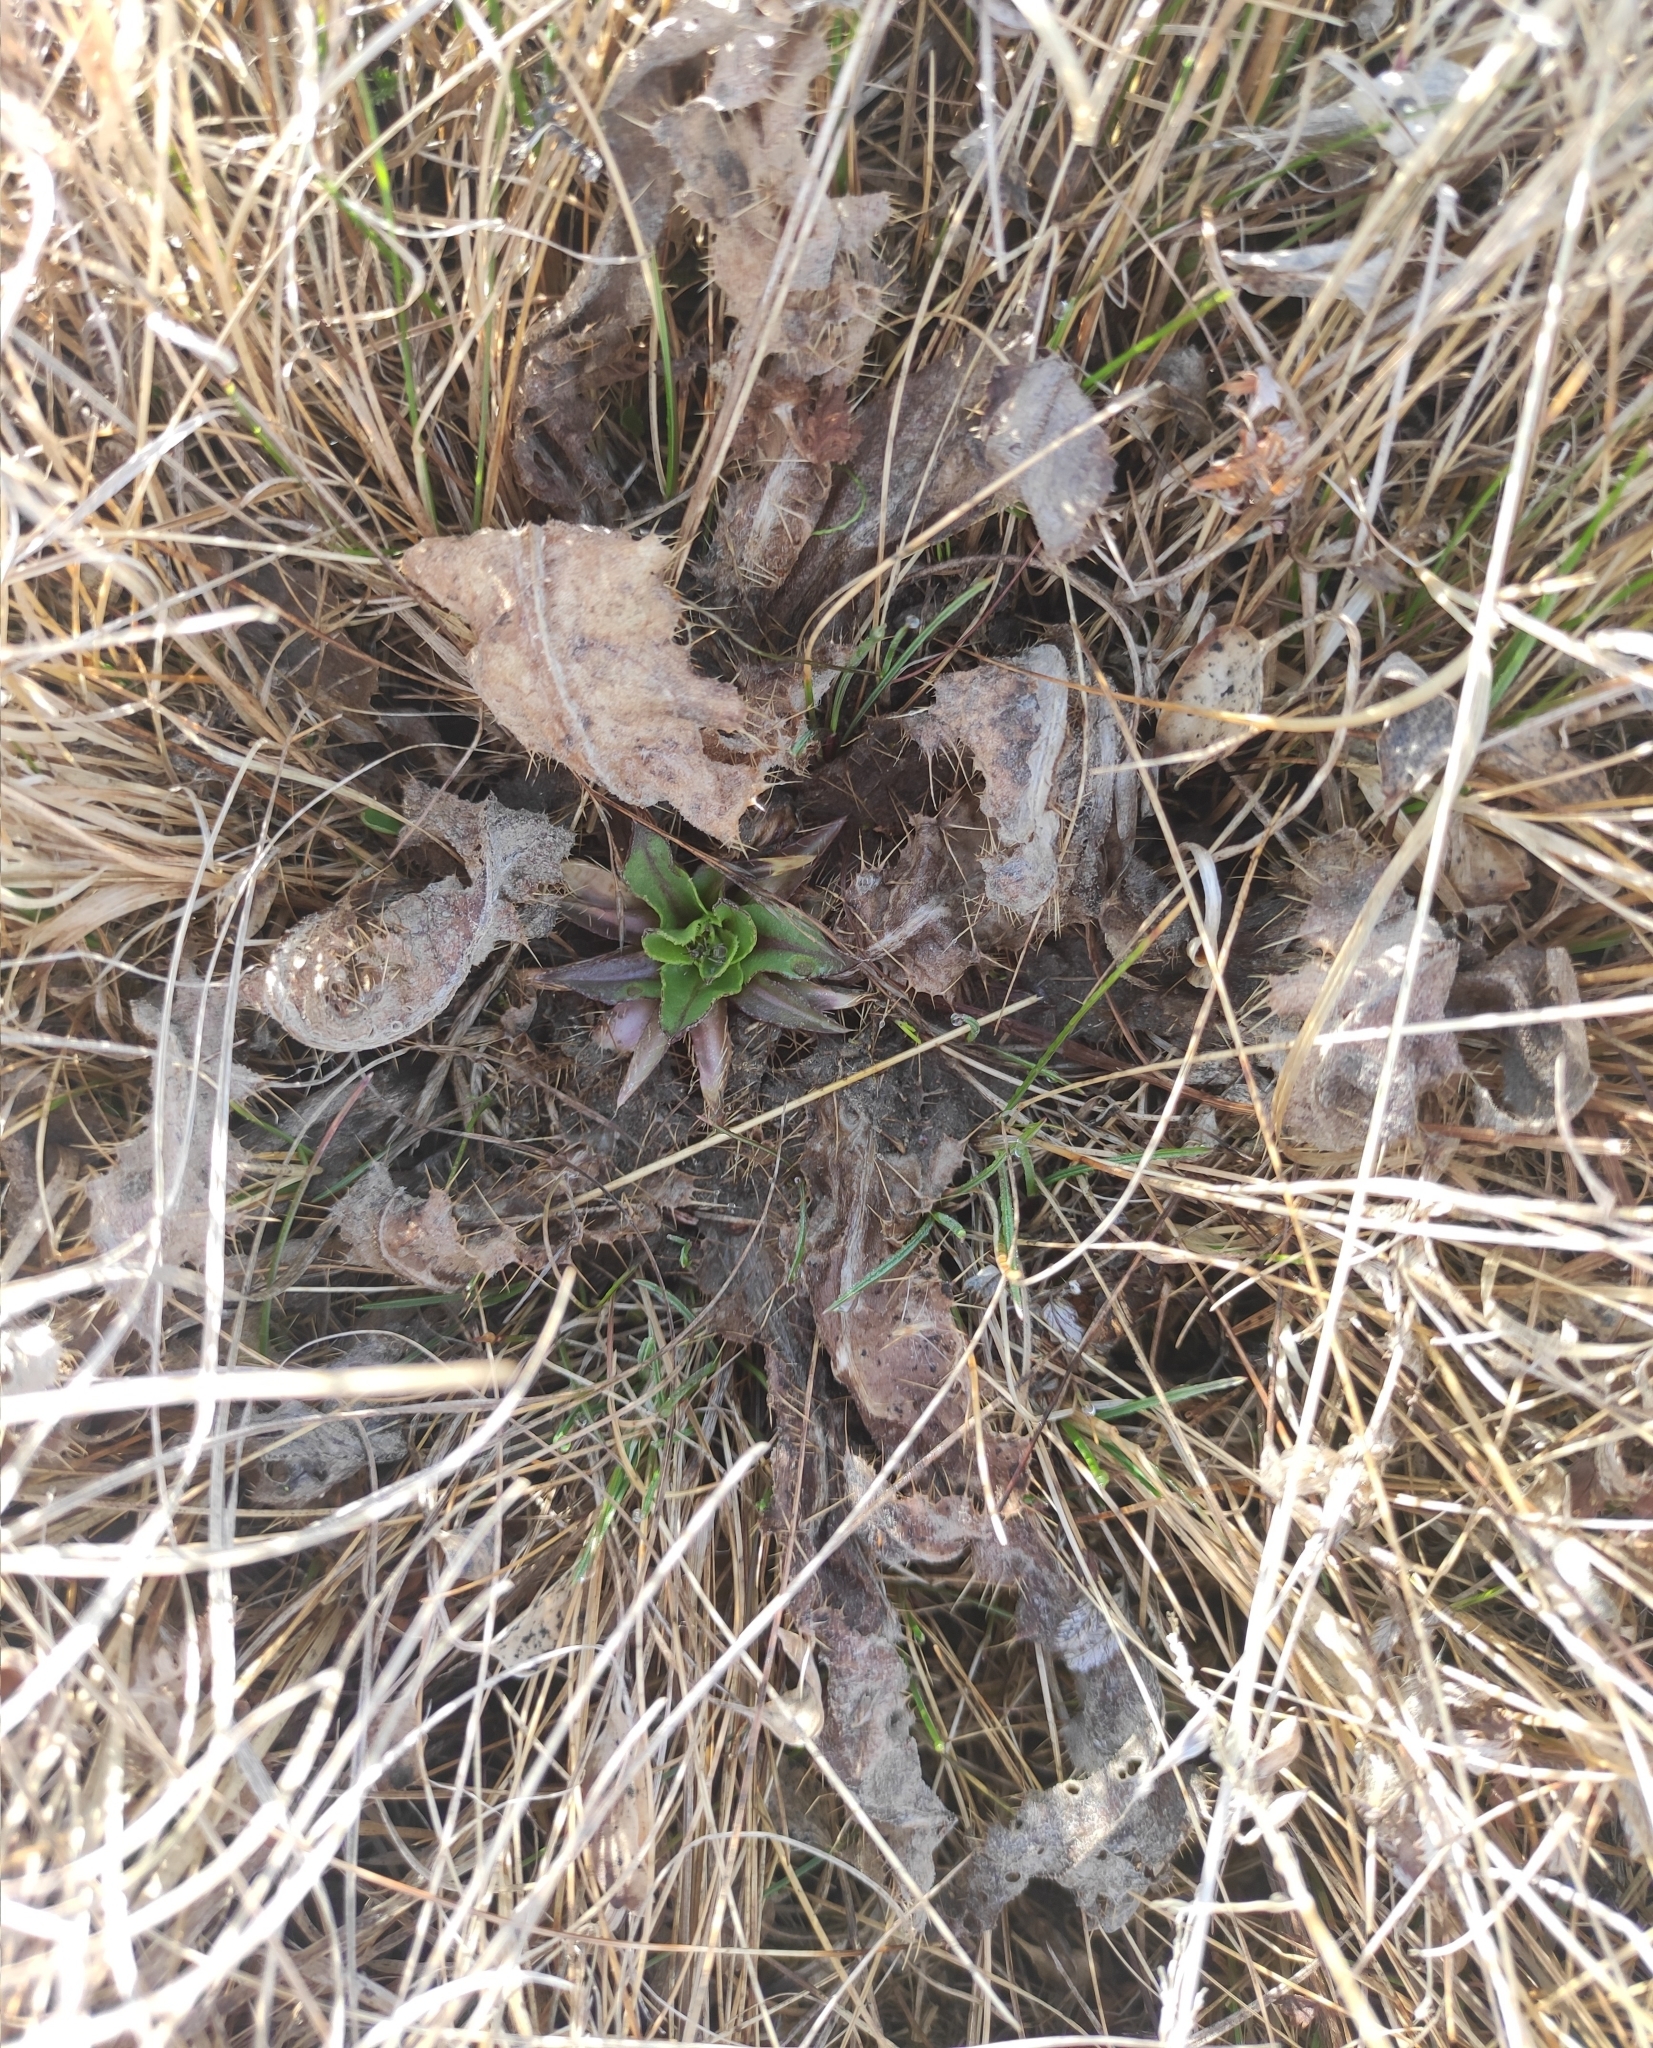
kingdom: Plantae
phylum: Tracheophyta
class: Magnoliopsida
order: Asterales
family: Asteraceae
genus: Cirsium
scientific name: Cirsium esculentum
